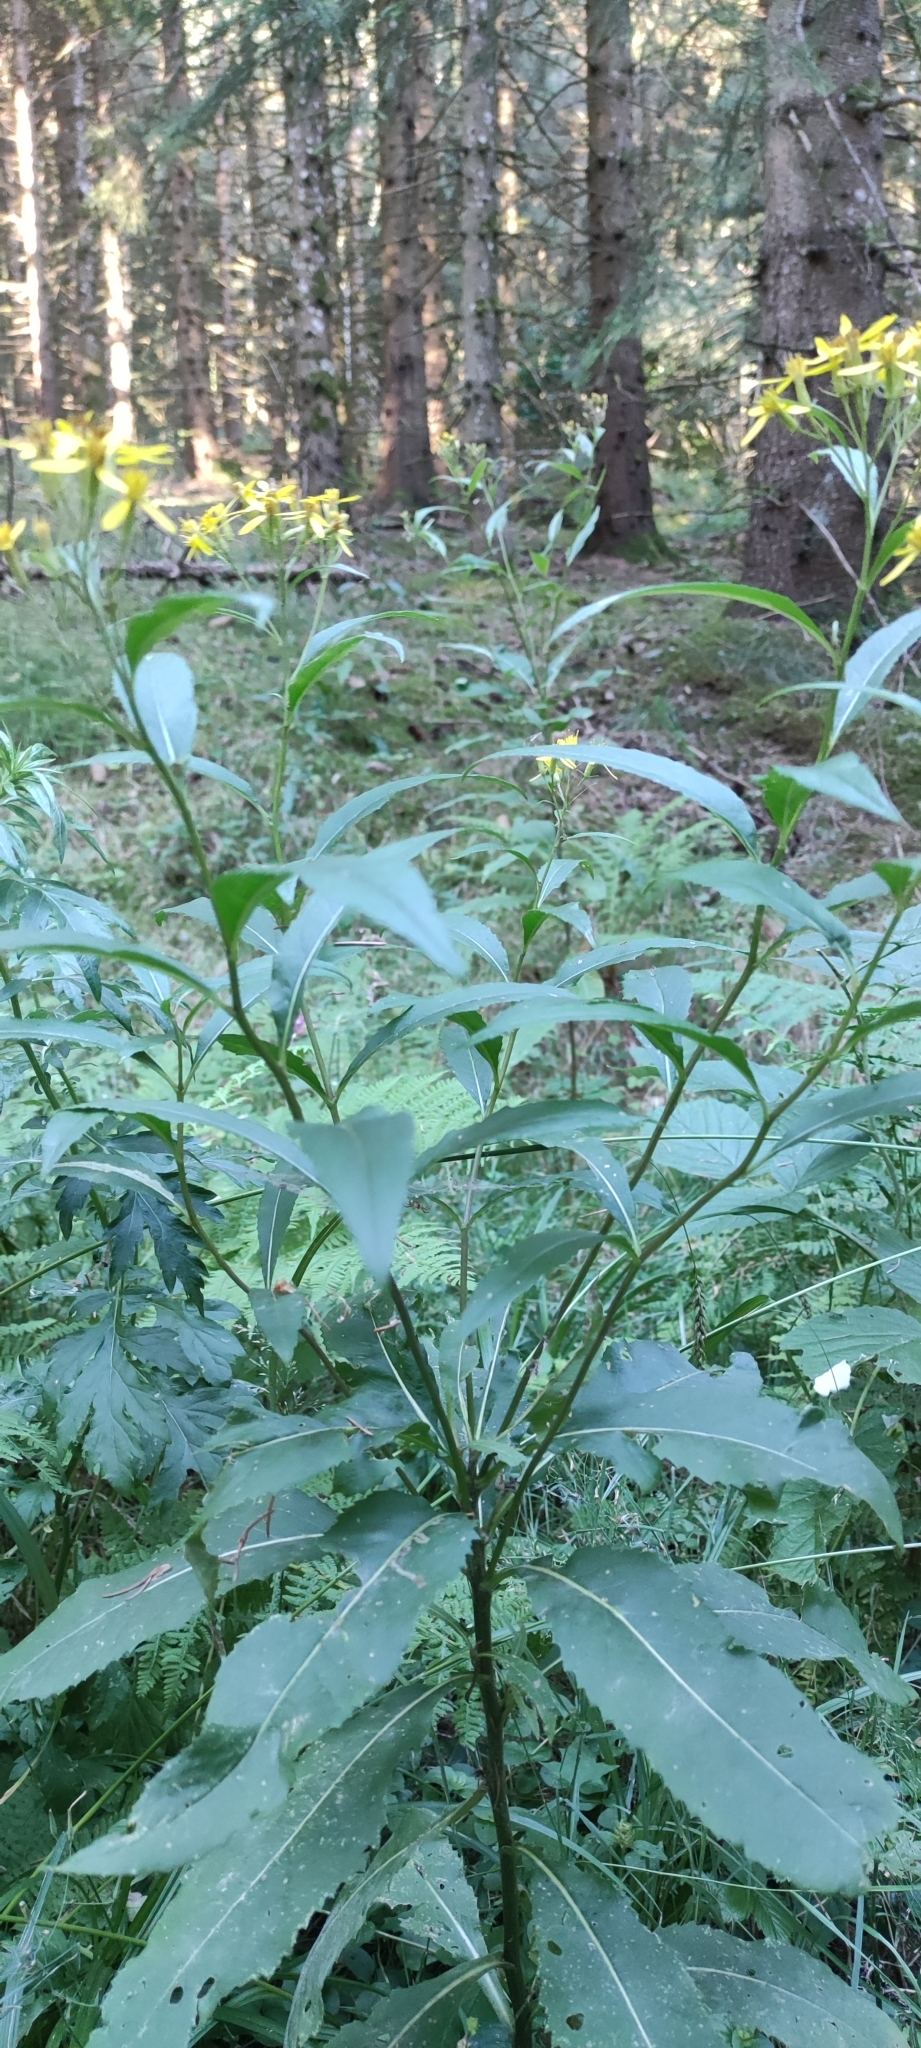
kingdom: Plantae
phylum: Tracheophyta
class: Magnoliopsida
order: Asterales
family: Asteraceae
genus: Senecio
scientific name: Senecio ovatus
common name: Wood ragwort
